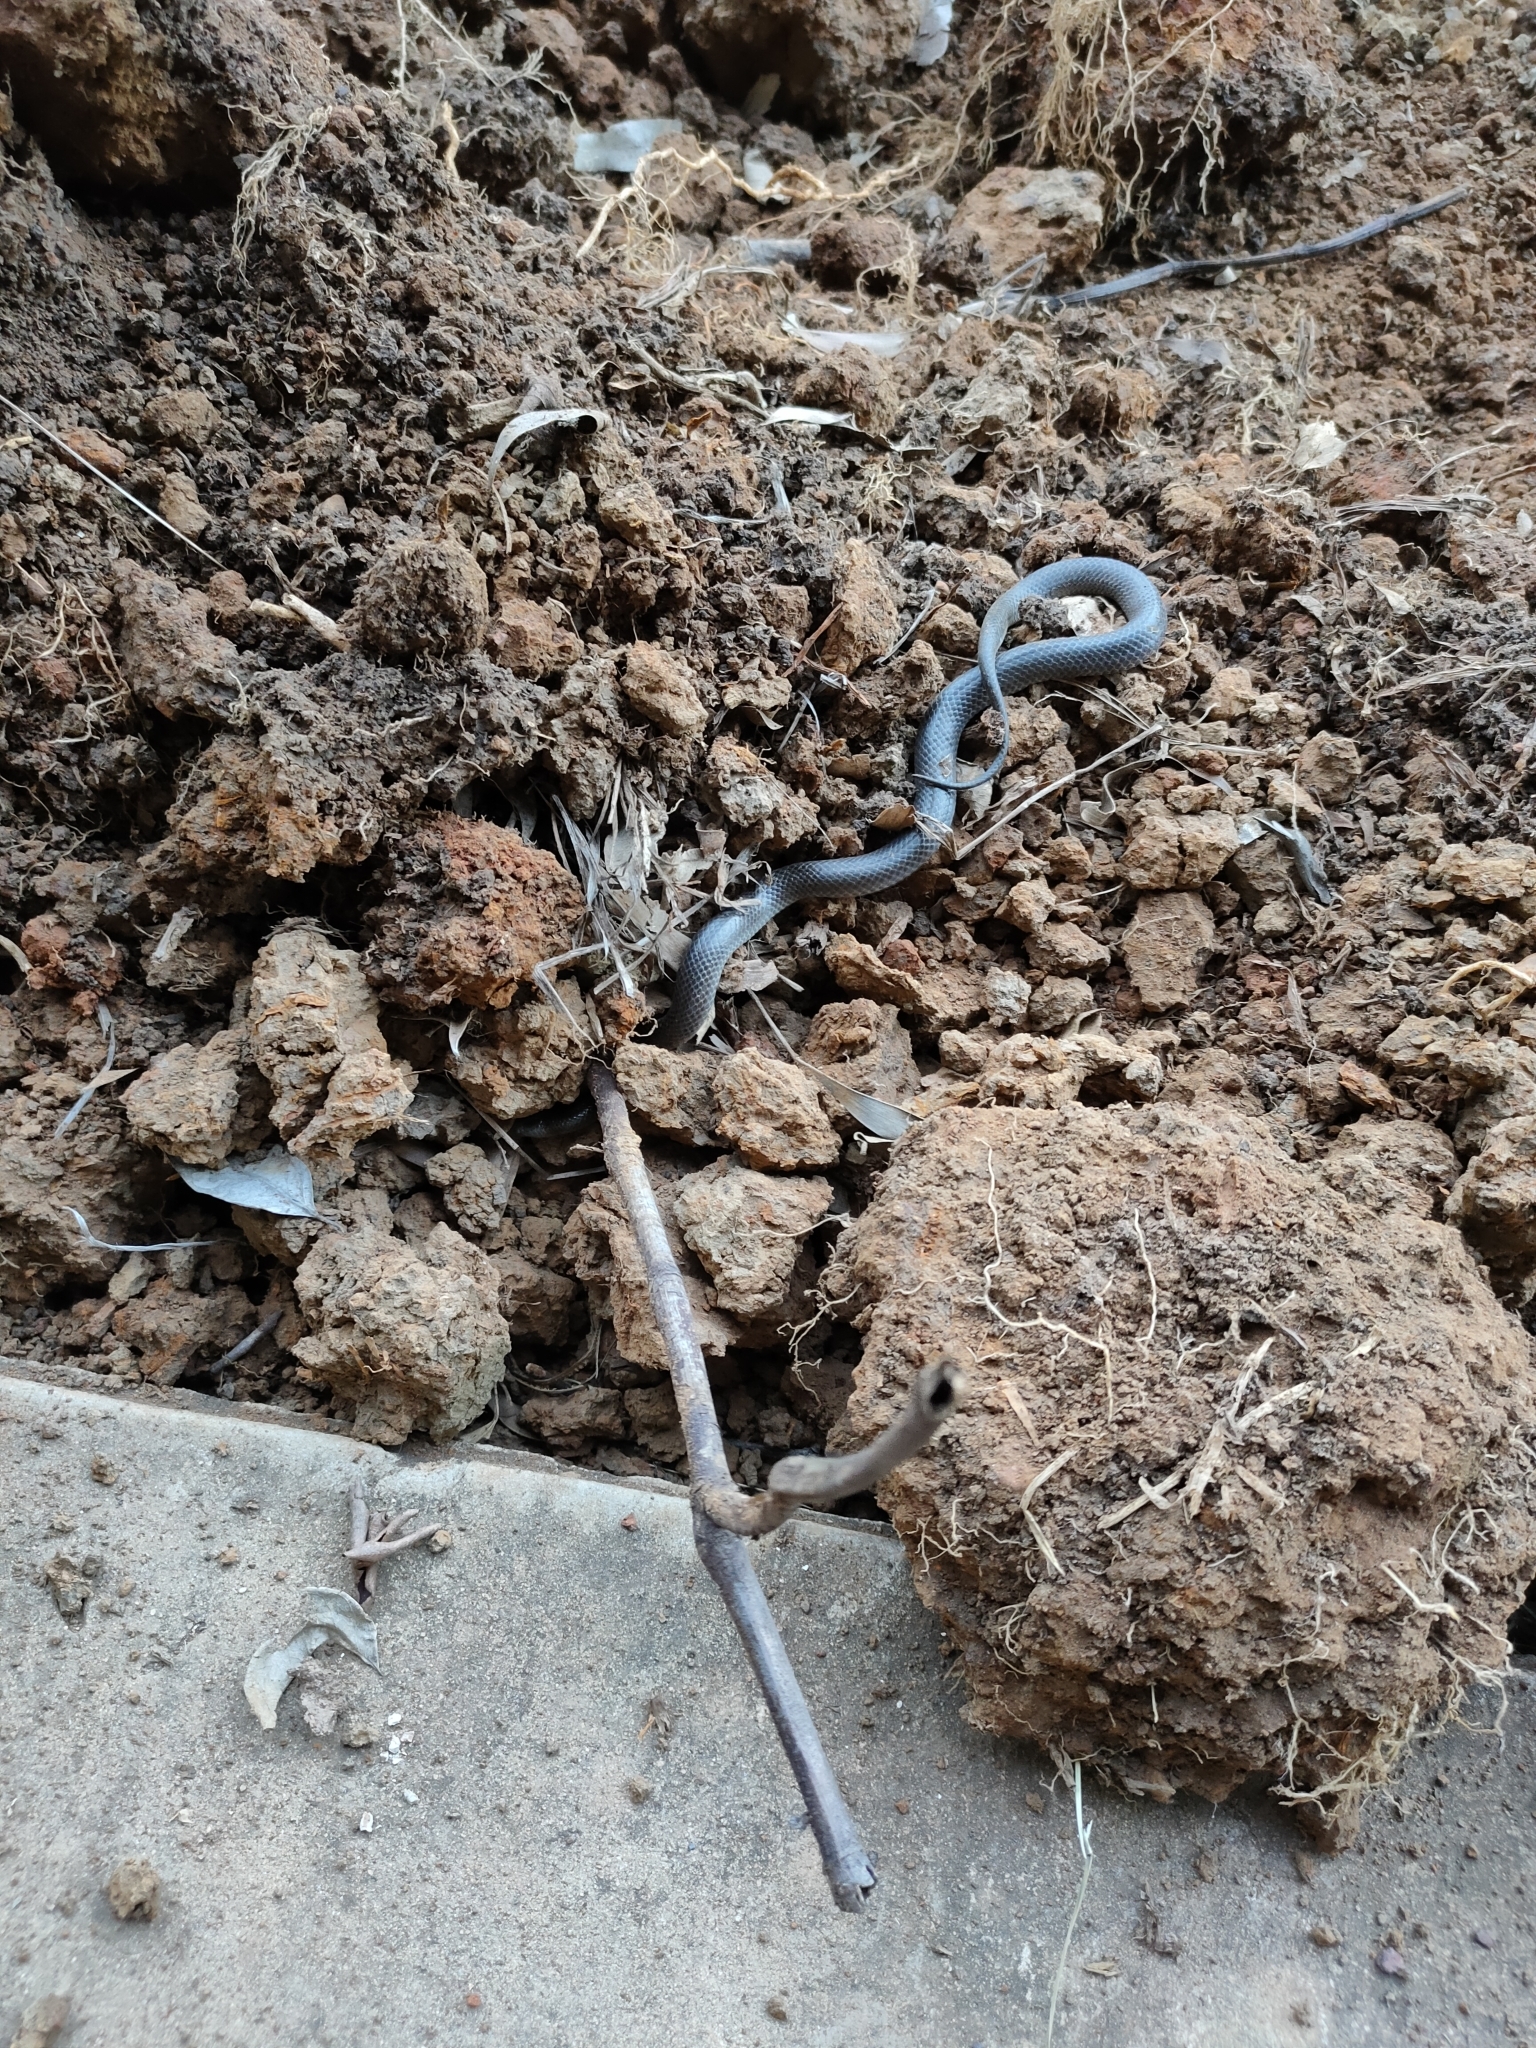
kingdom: Animalia
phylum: Chordata
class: Squamata
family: Elapidae
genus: Cryptophis
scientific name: Cryptophis nigrescens
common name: Eastern small-eyed snake
